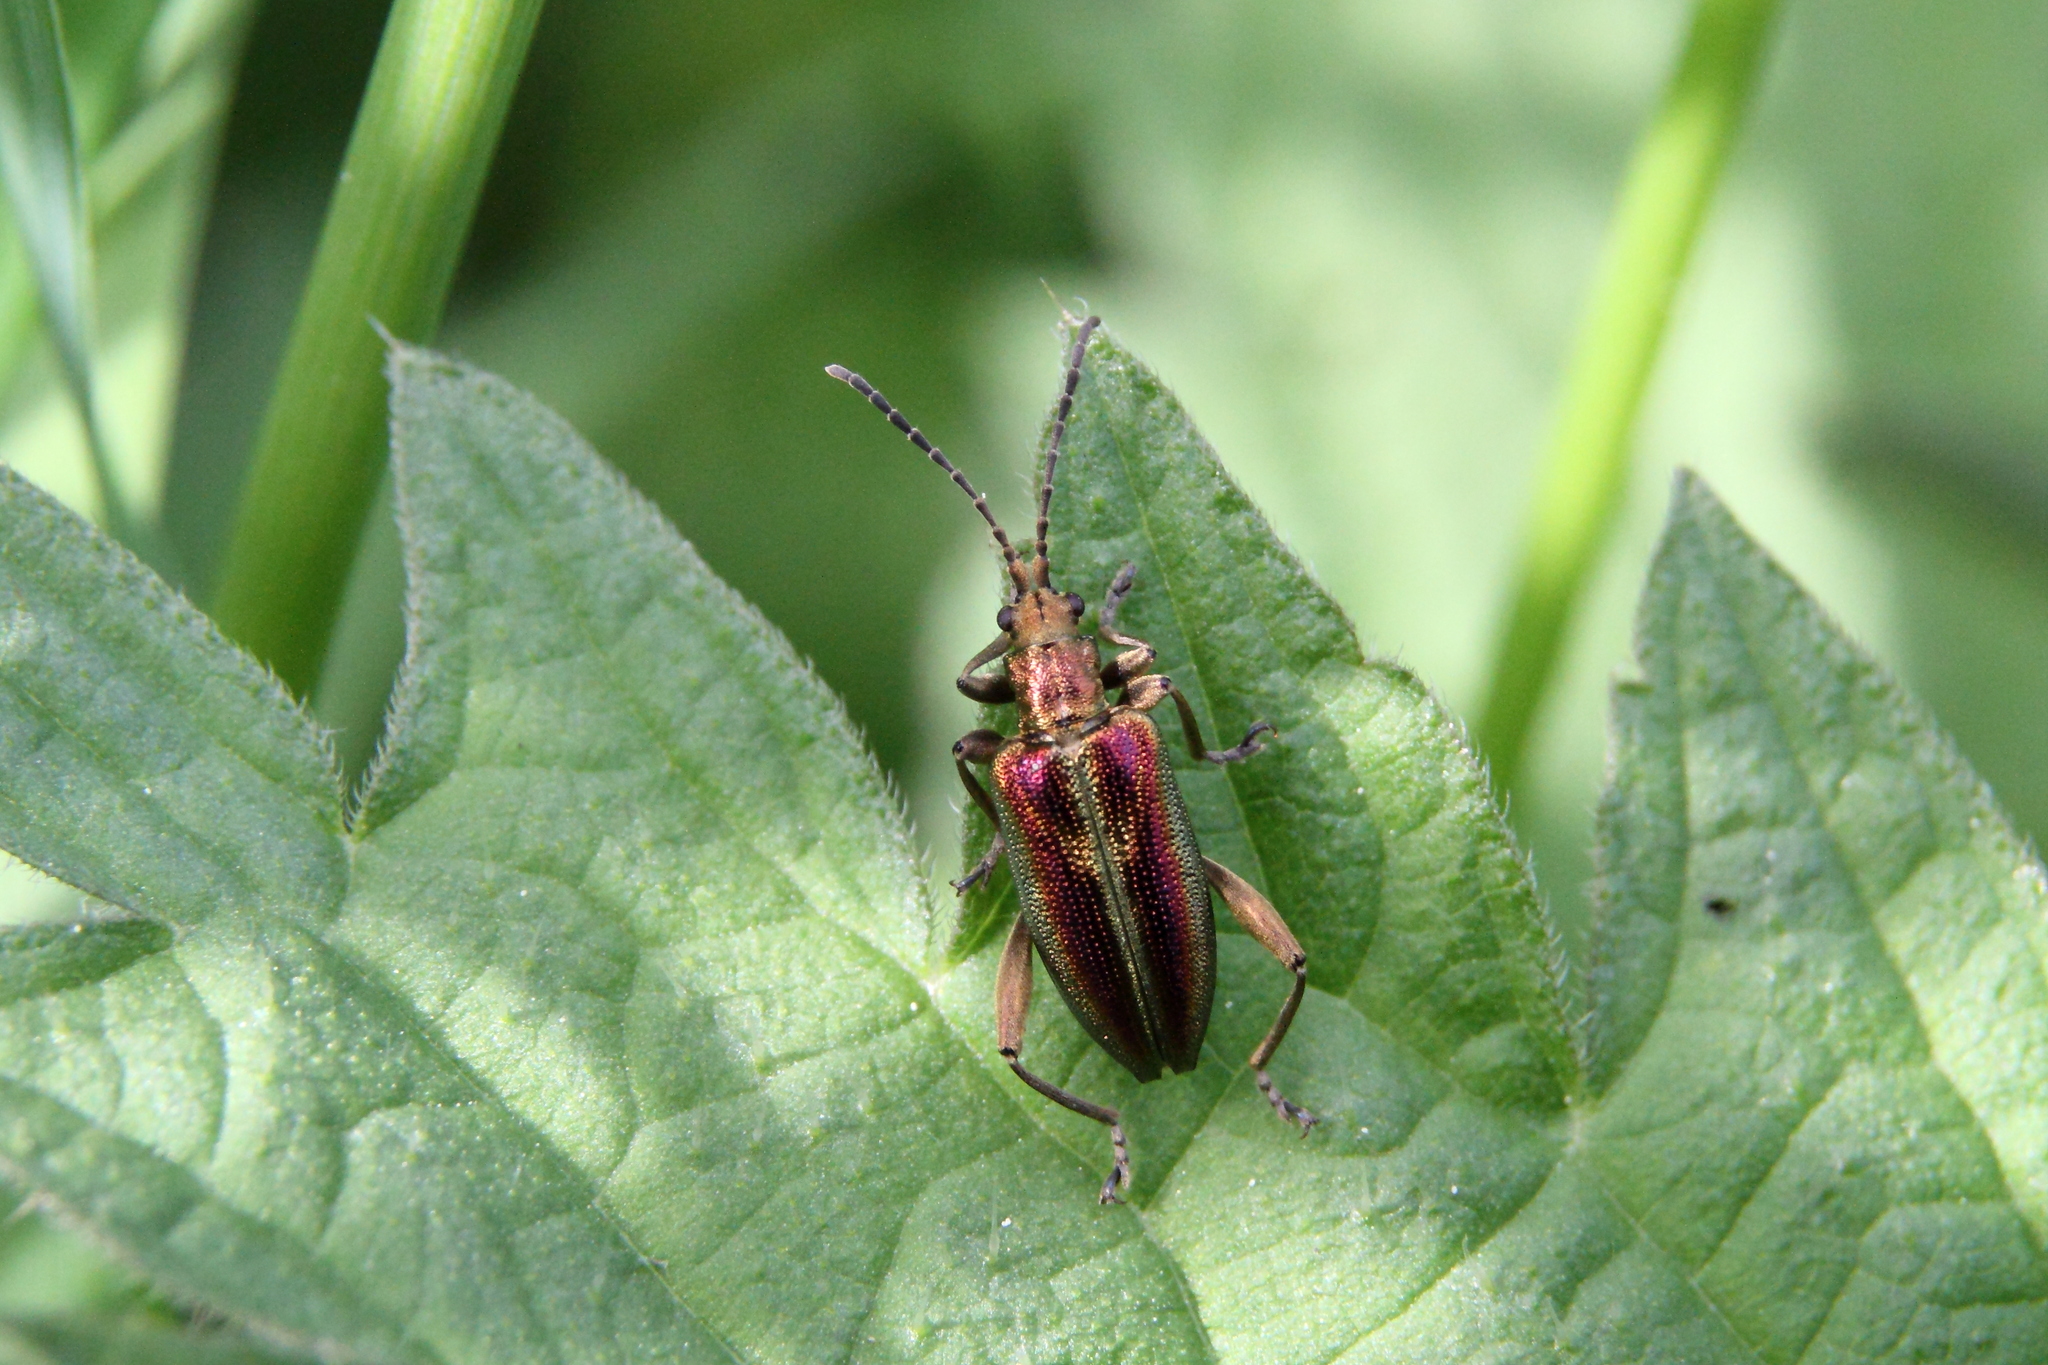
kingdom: Animalia
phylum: Arthropoda
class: Insecta
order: Coleoptera
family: Chrysomelidae
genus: Donacia
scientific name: Donacia aquatica
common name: Zircon reed beetle
